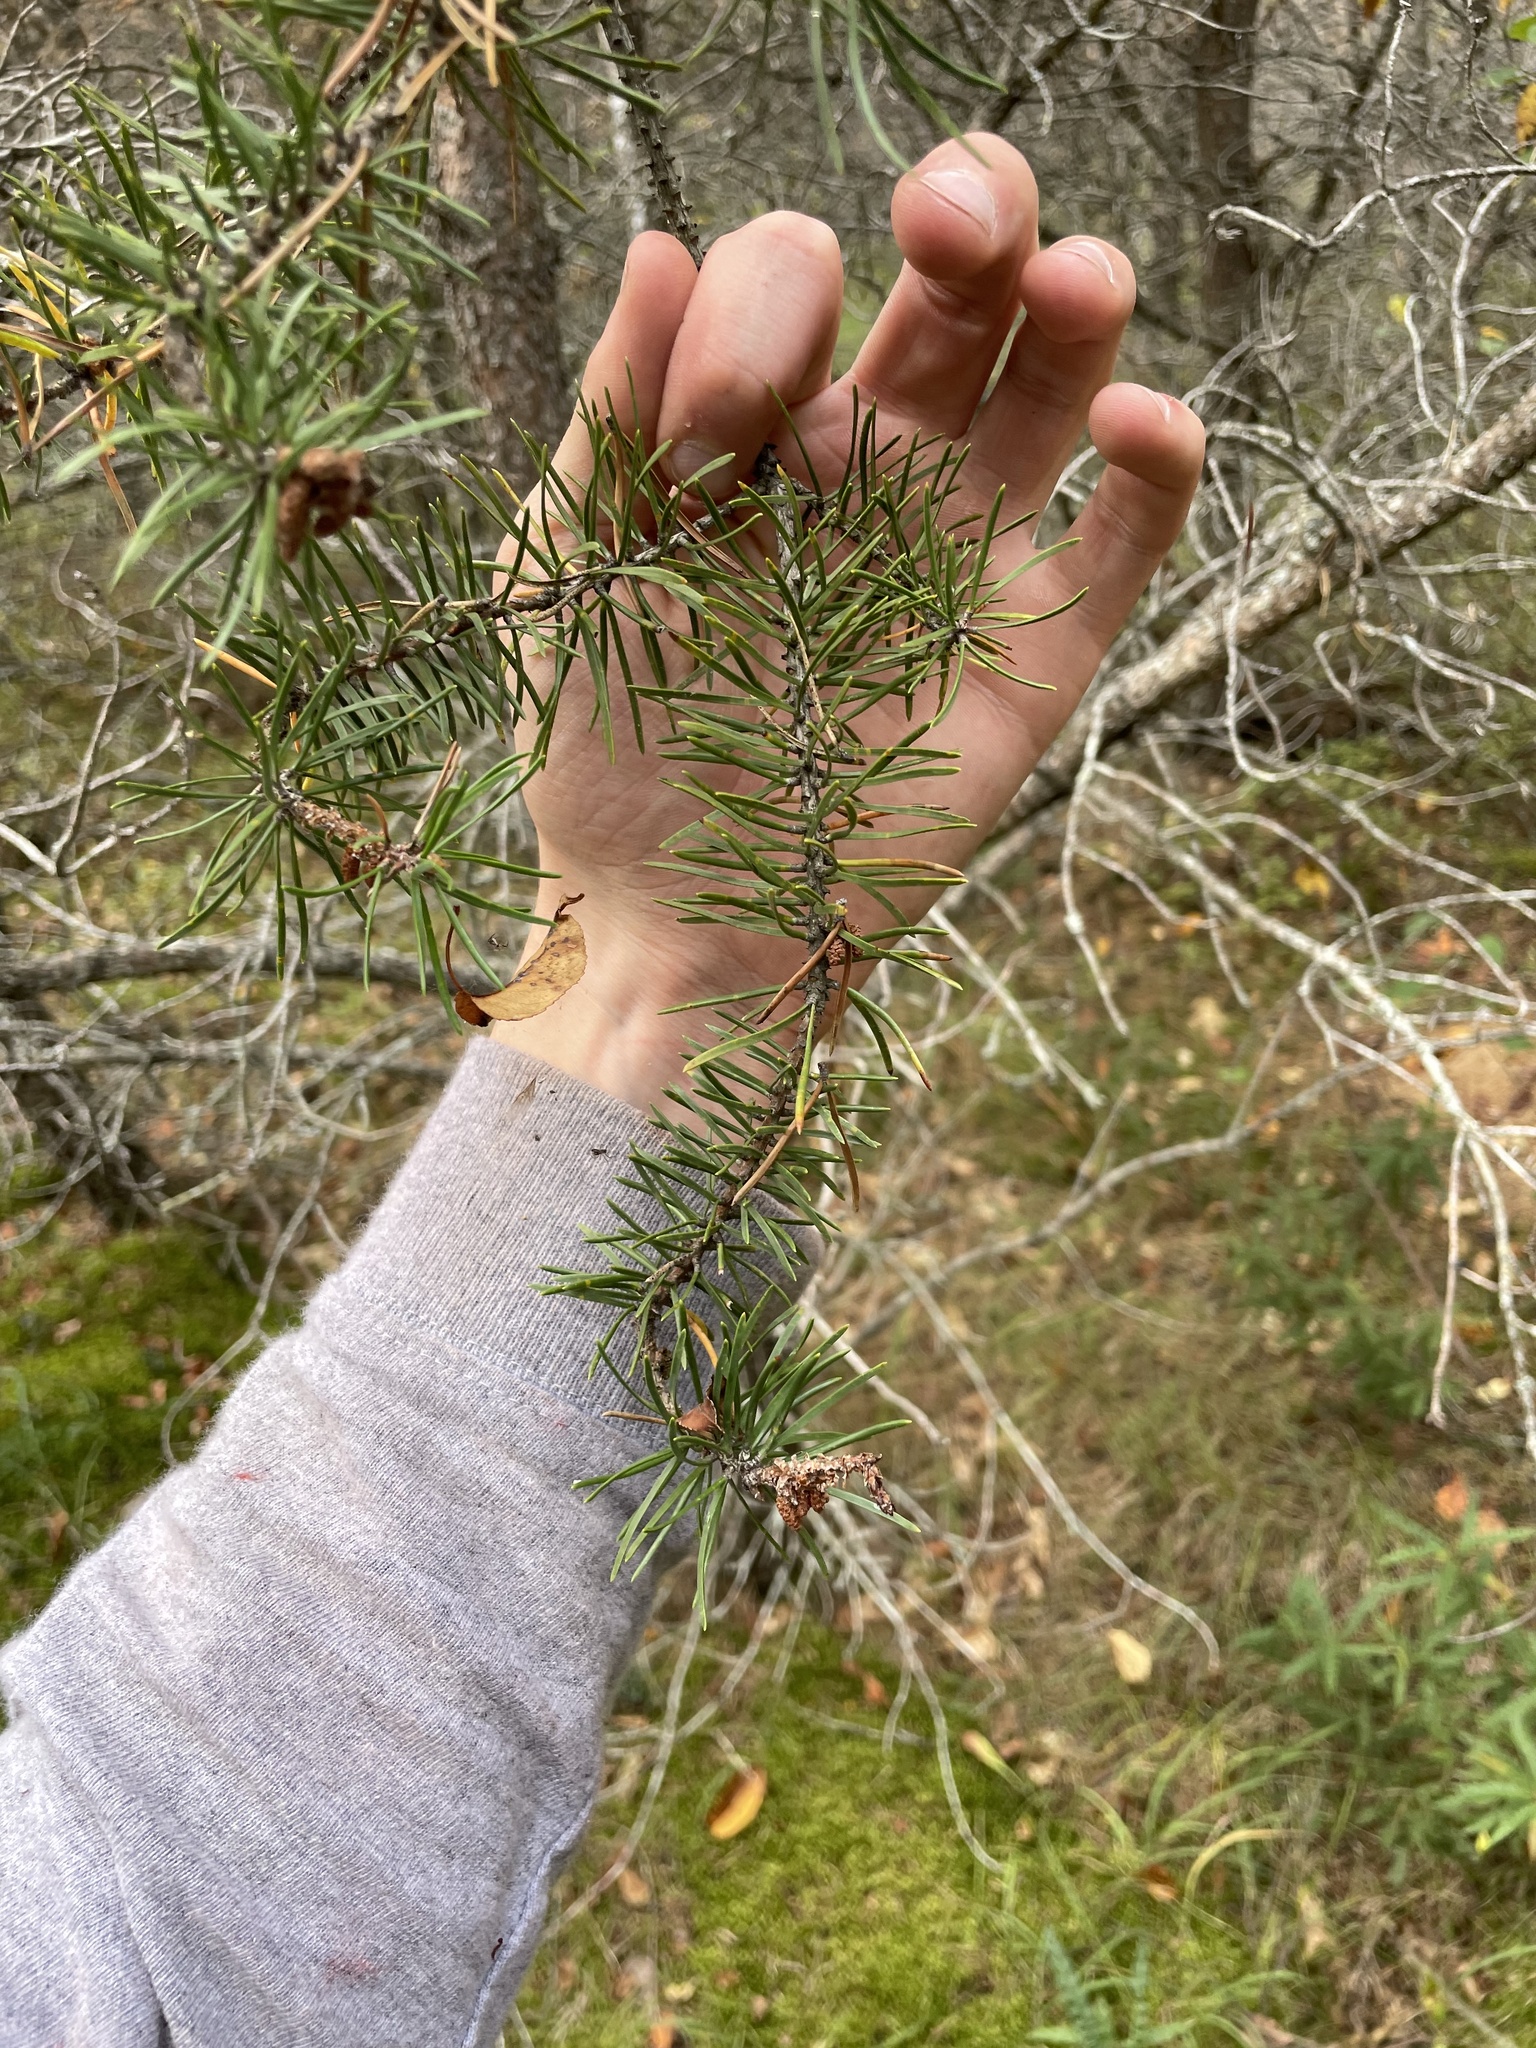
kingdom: Plantae
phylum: Tracheophyta
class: Pinopsida
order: Pinales
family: Pinaceae
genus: Pinus
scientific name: Pinus banksiana
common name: Jack pine
